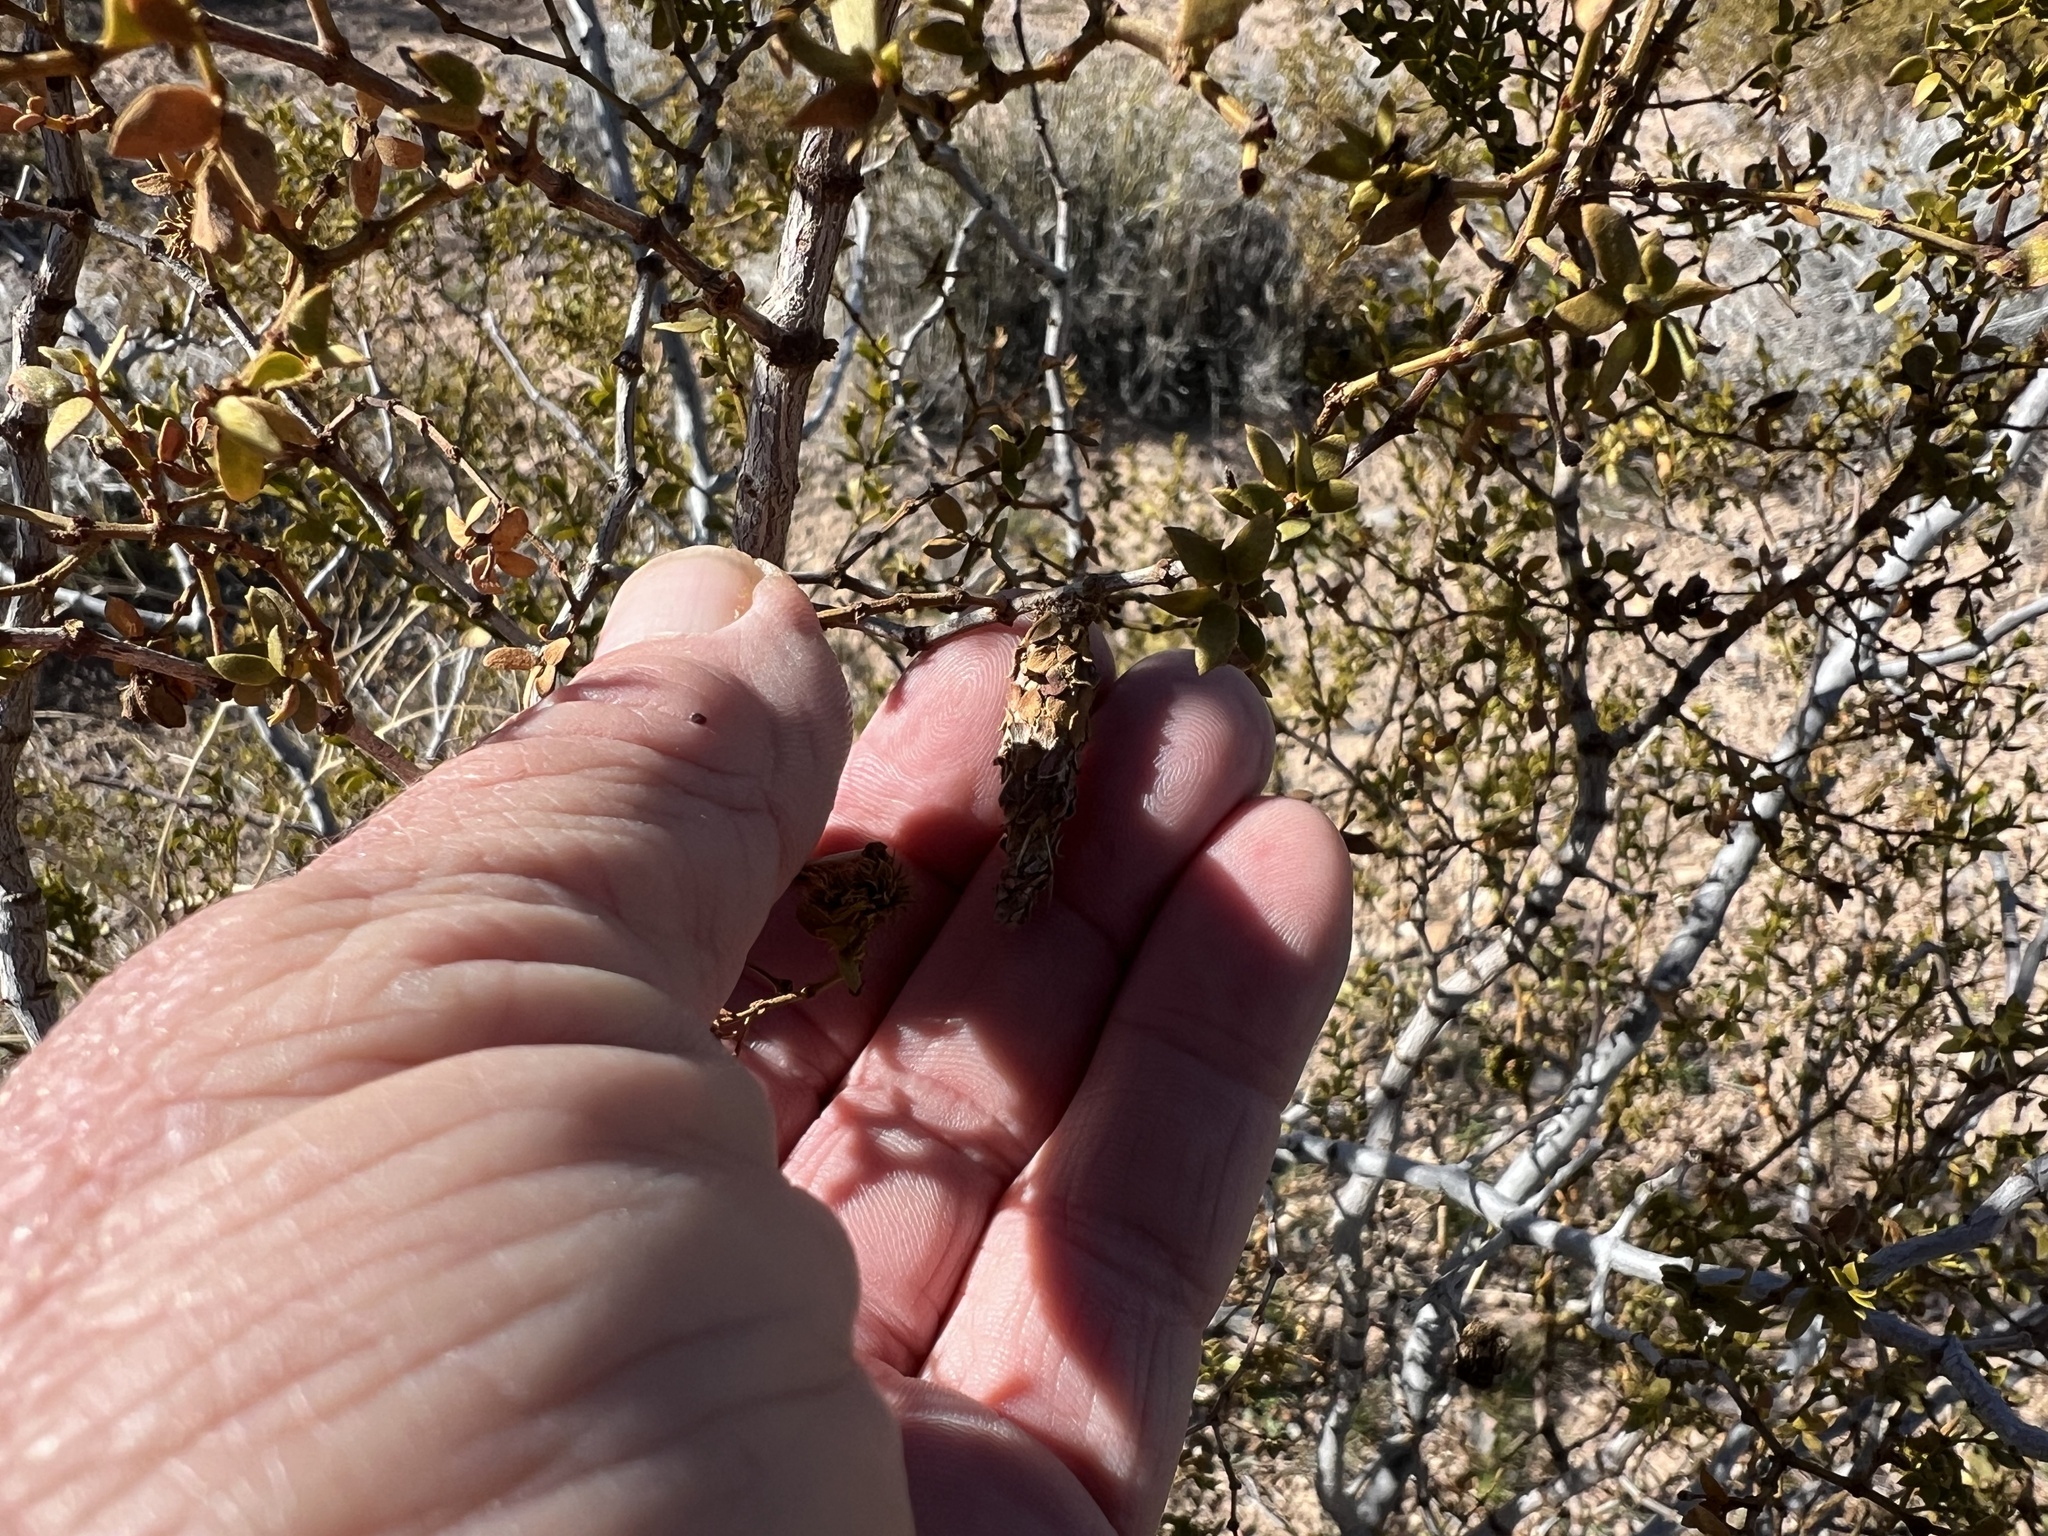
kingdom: Animalia
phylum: Arthropoda
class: Insecta
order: Lepidoptera
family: Psychidae
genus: Thyridopteryx
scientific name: Thyridopteryx meadii
